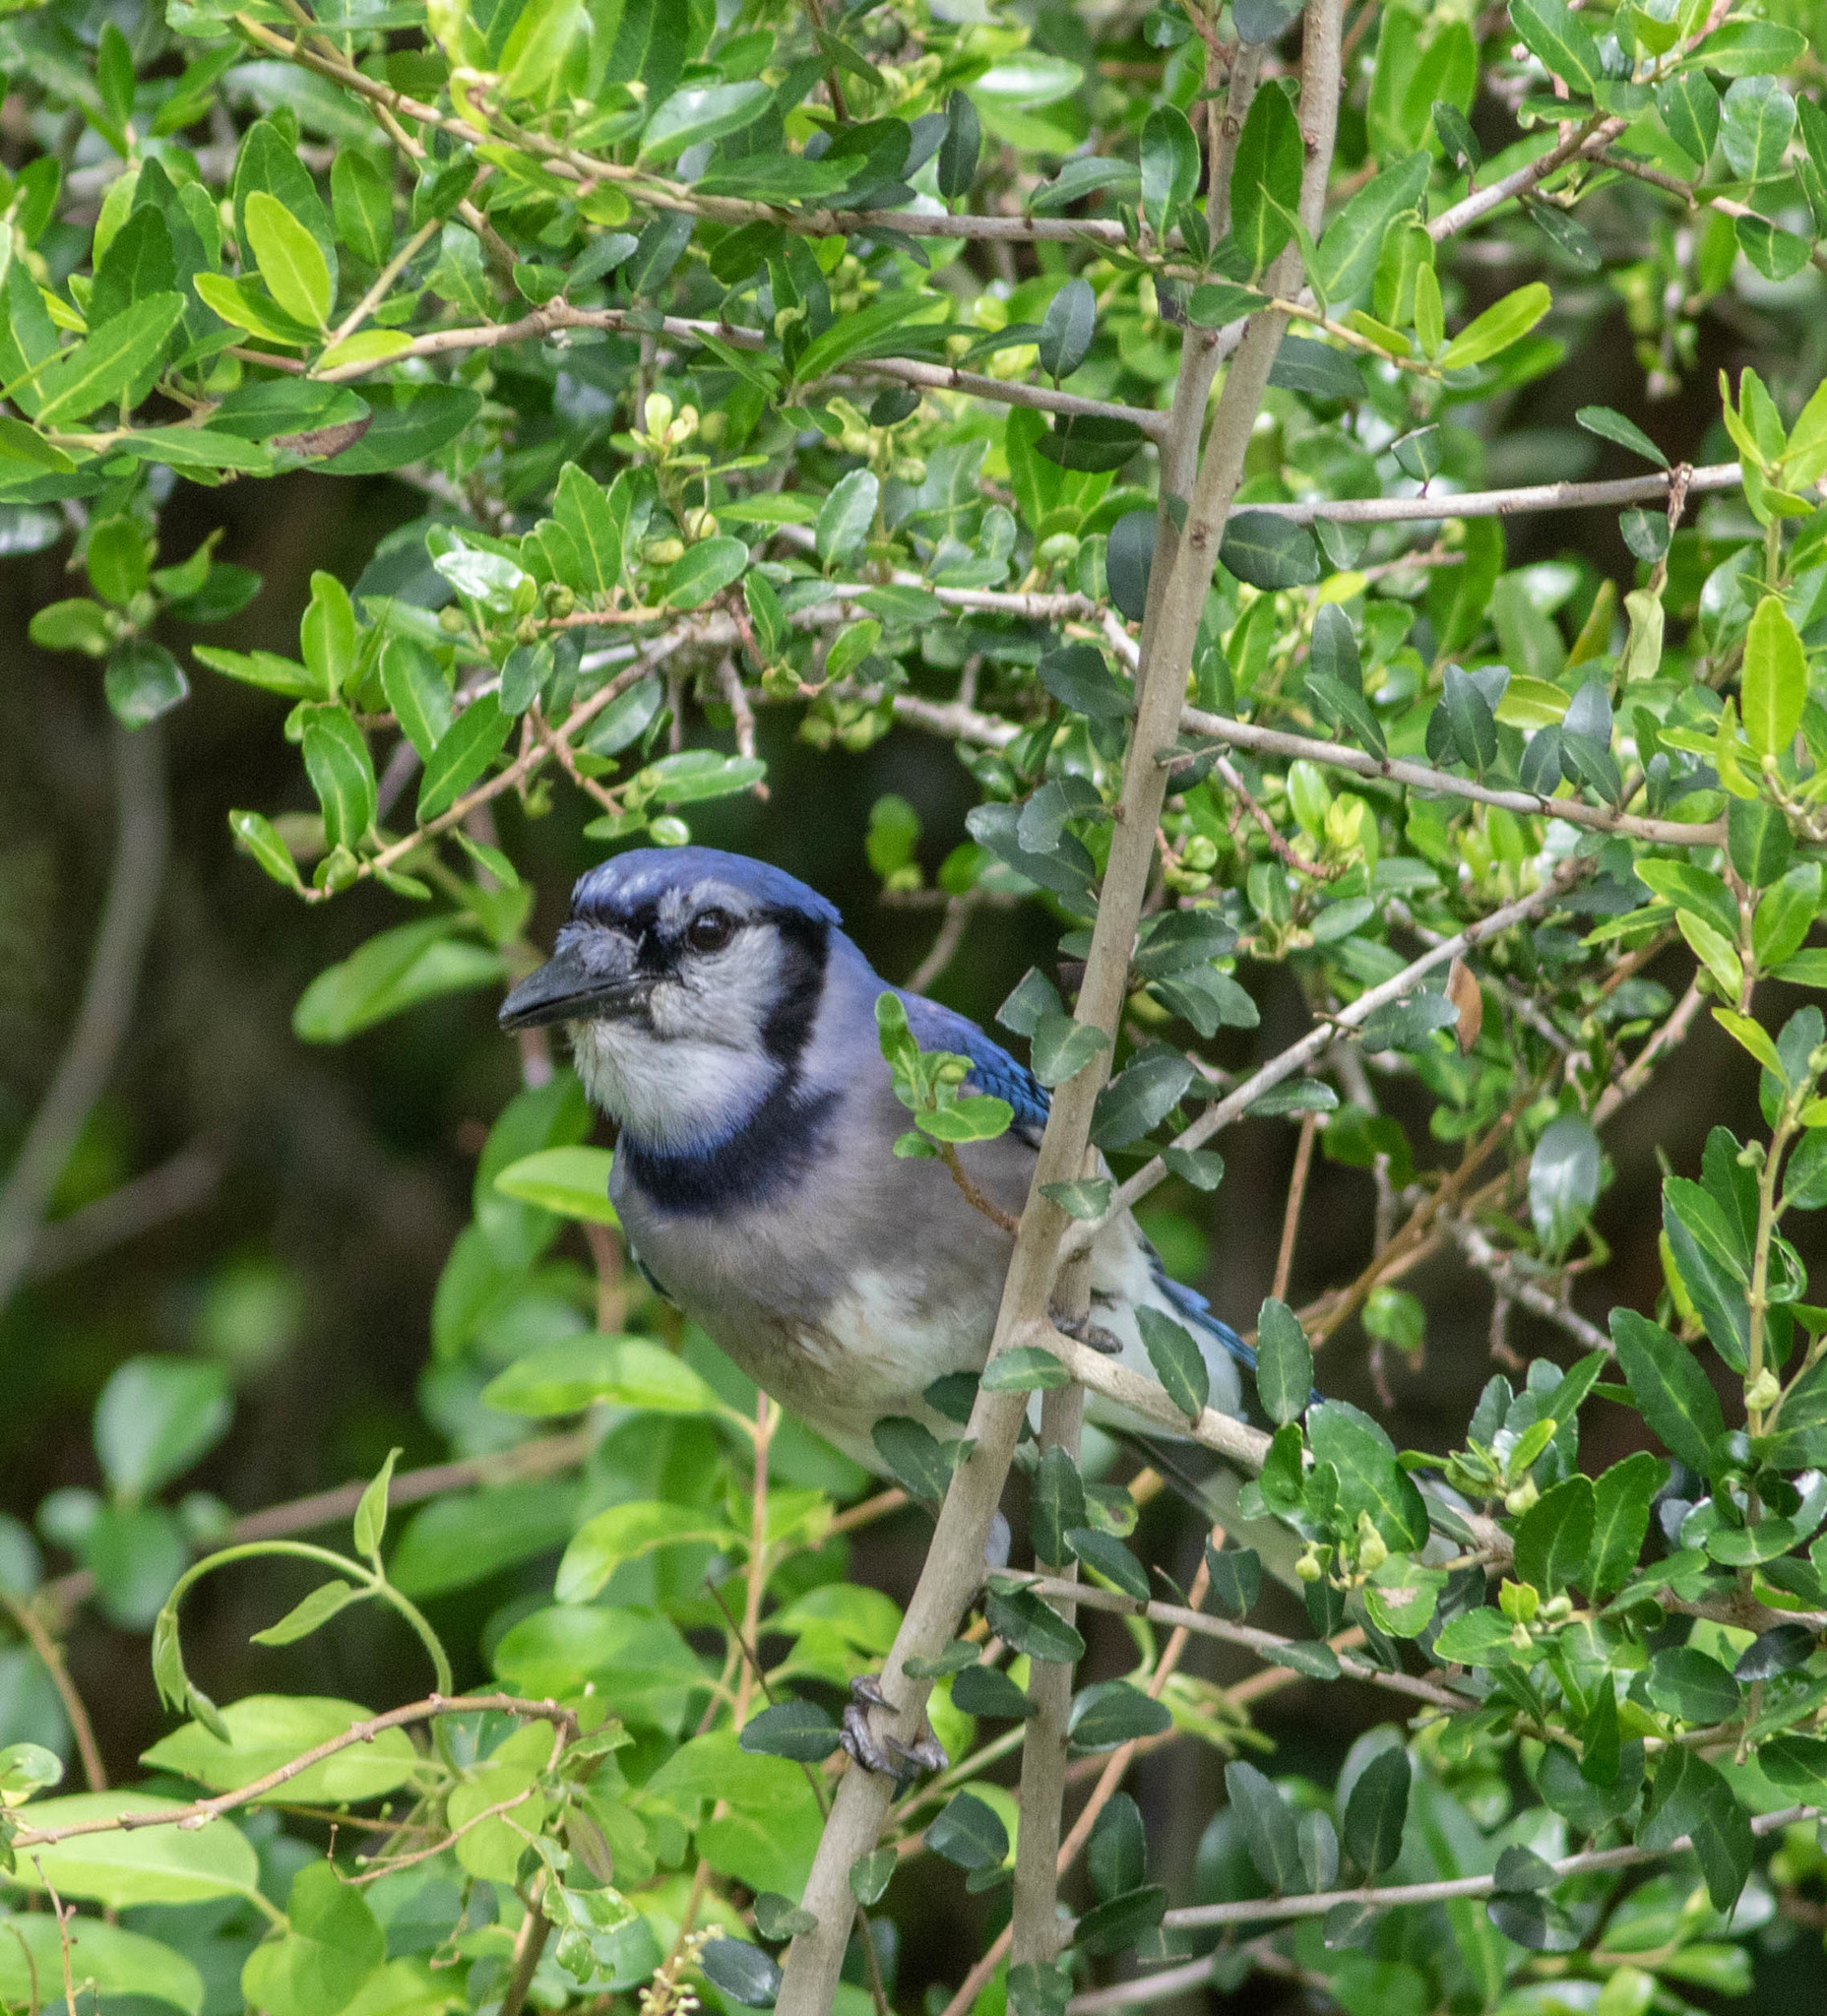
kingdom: Animalia
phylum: Chordata
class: Aves
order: Passeriformes
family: Corvidae
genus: Cyanocitta
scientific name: Cyanocitta cristata
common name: Blue jay
